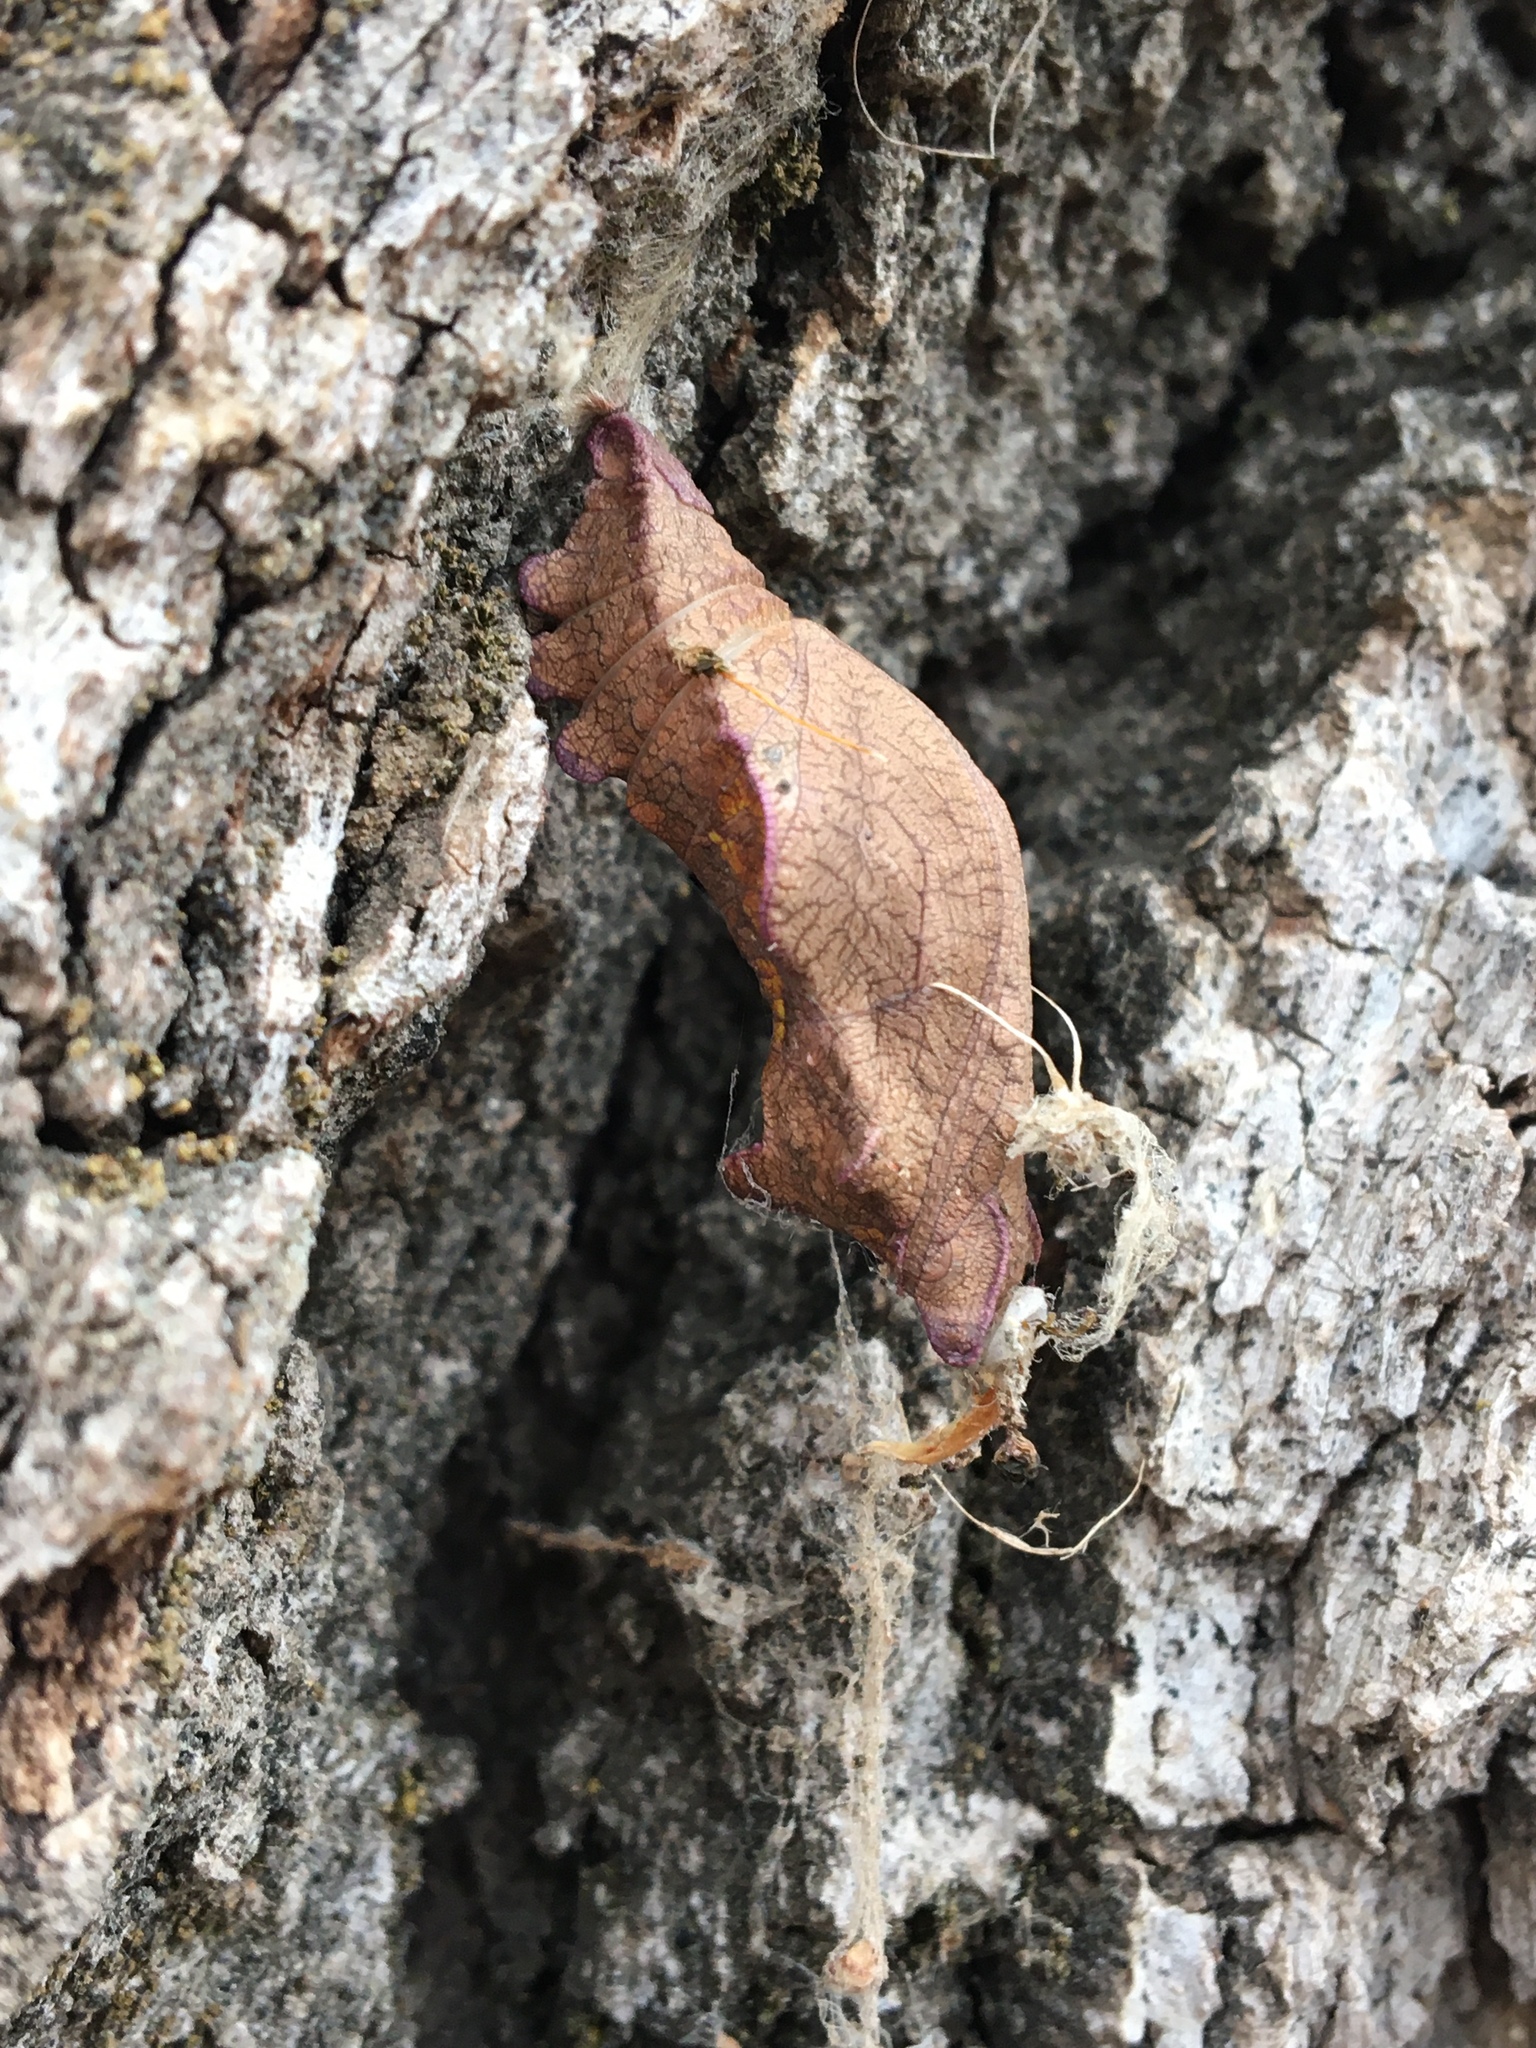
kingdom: Animalia
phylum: Arthropoda
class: Insecta
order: Lepidoptera
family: Papilionidae
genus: Battus
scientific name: Battus philenor
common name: Pipevine swallowtail
